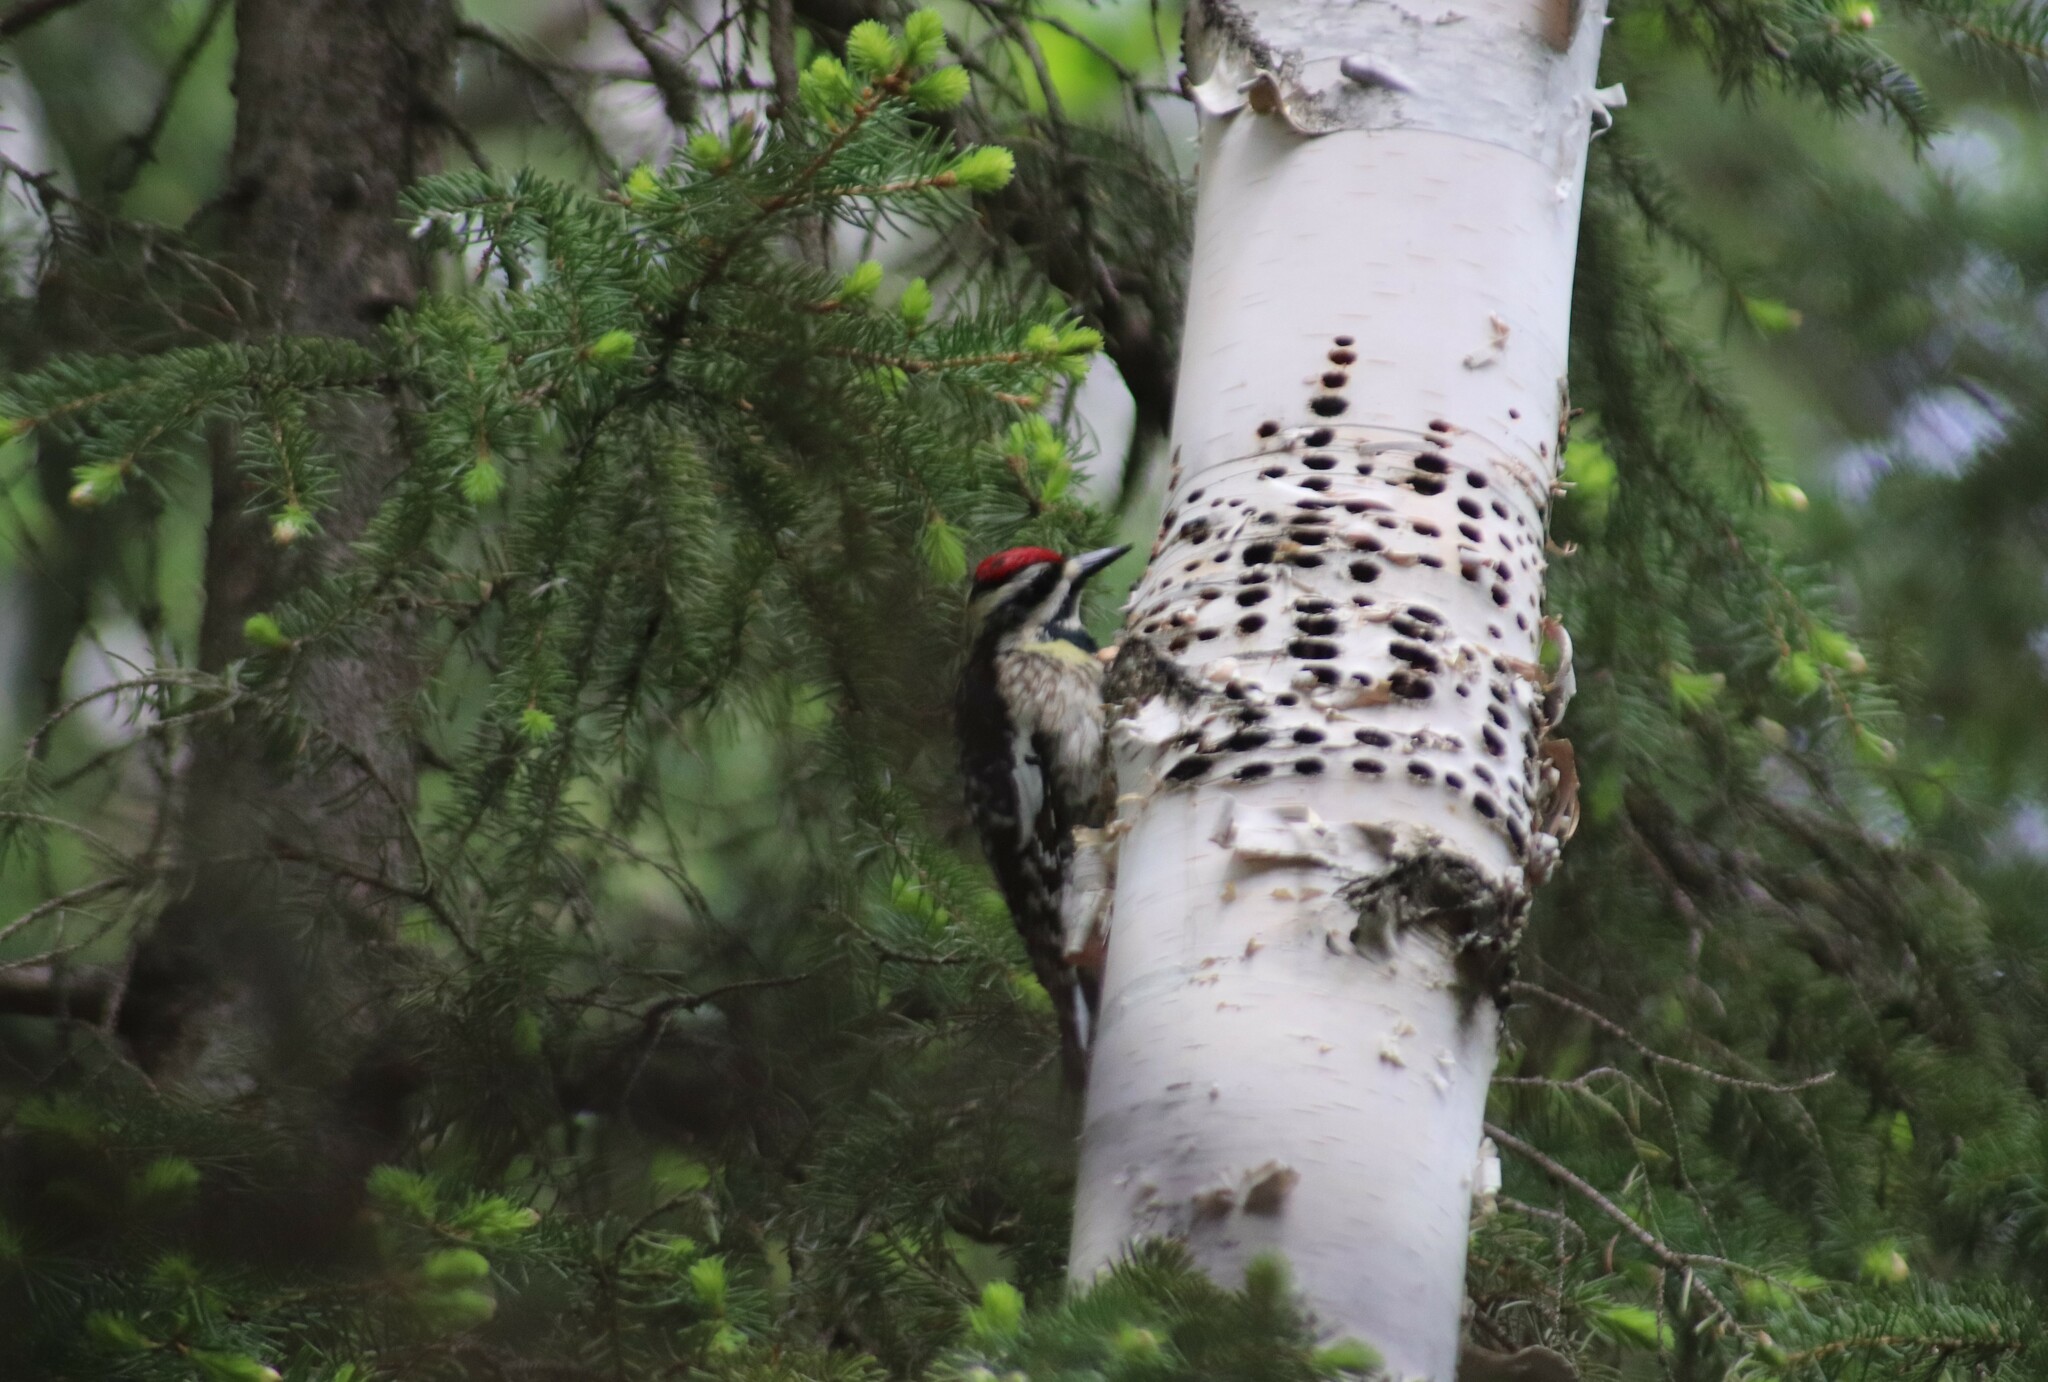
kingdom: Animalia
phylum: Chordata
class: Aves
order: Piciformes
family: Picidae
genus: Sphyrapicus
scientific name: Sphyrapicus varius
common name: Yellow-bellied sapsucker
